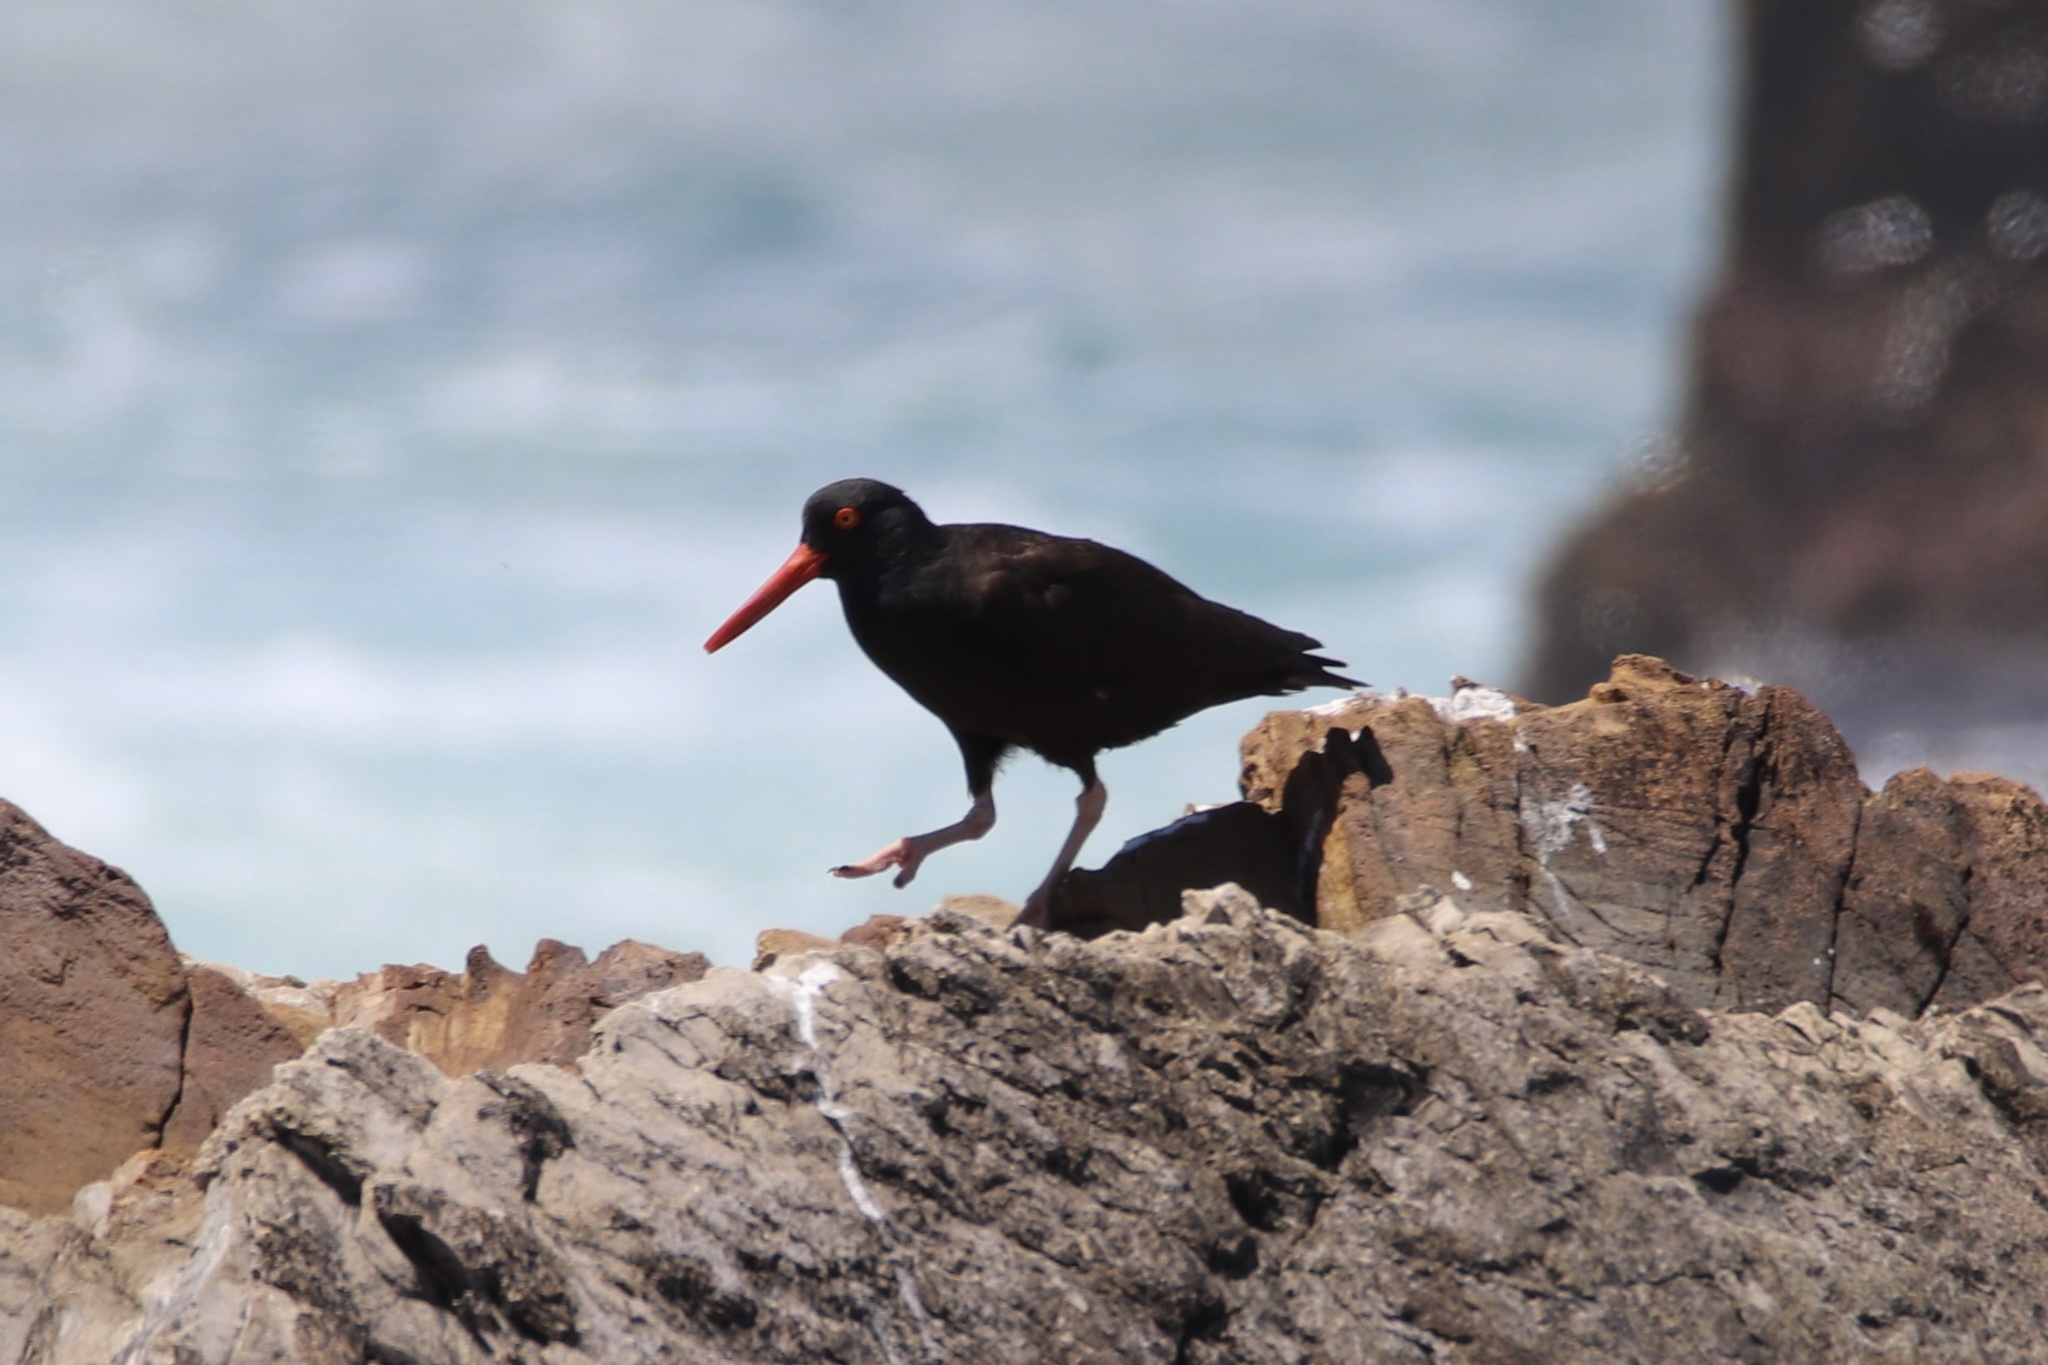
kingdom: Animalia
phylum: Chordata
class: Aves
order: Charadriiformes
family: Haematopodidae
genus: Haematopus
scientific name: Haematopus bachmani
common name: Black oystercatcher
